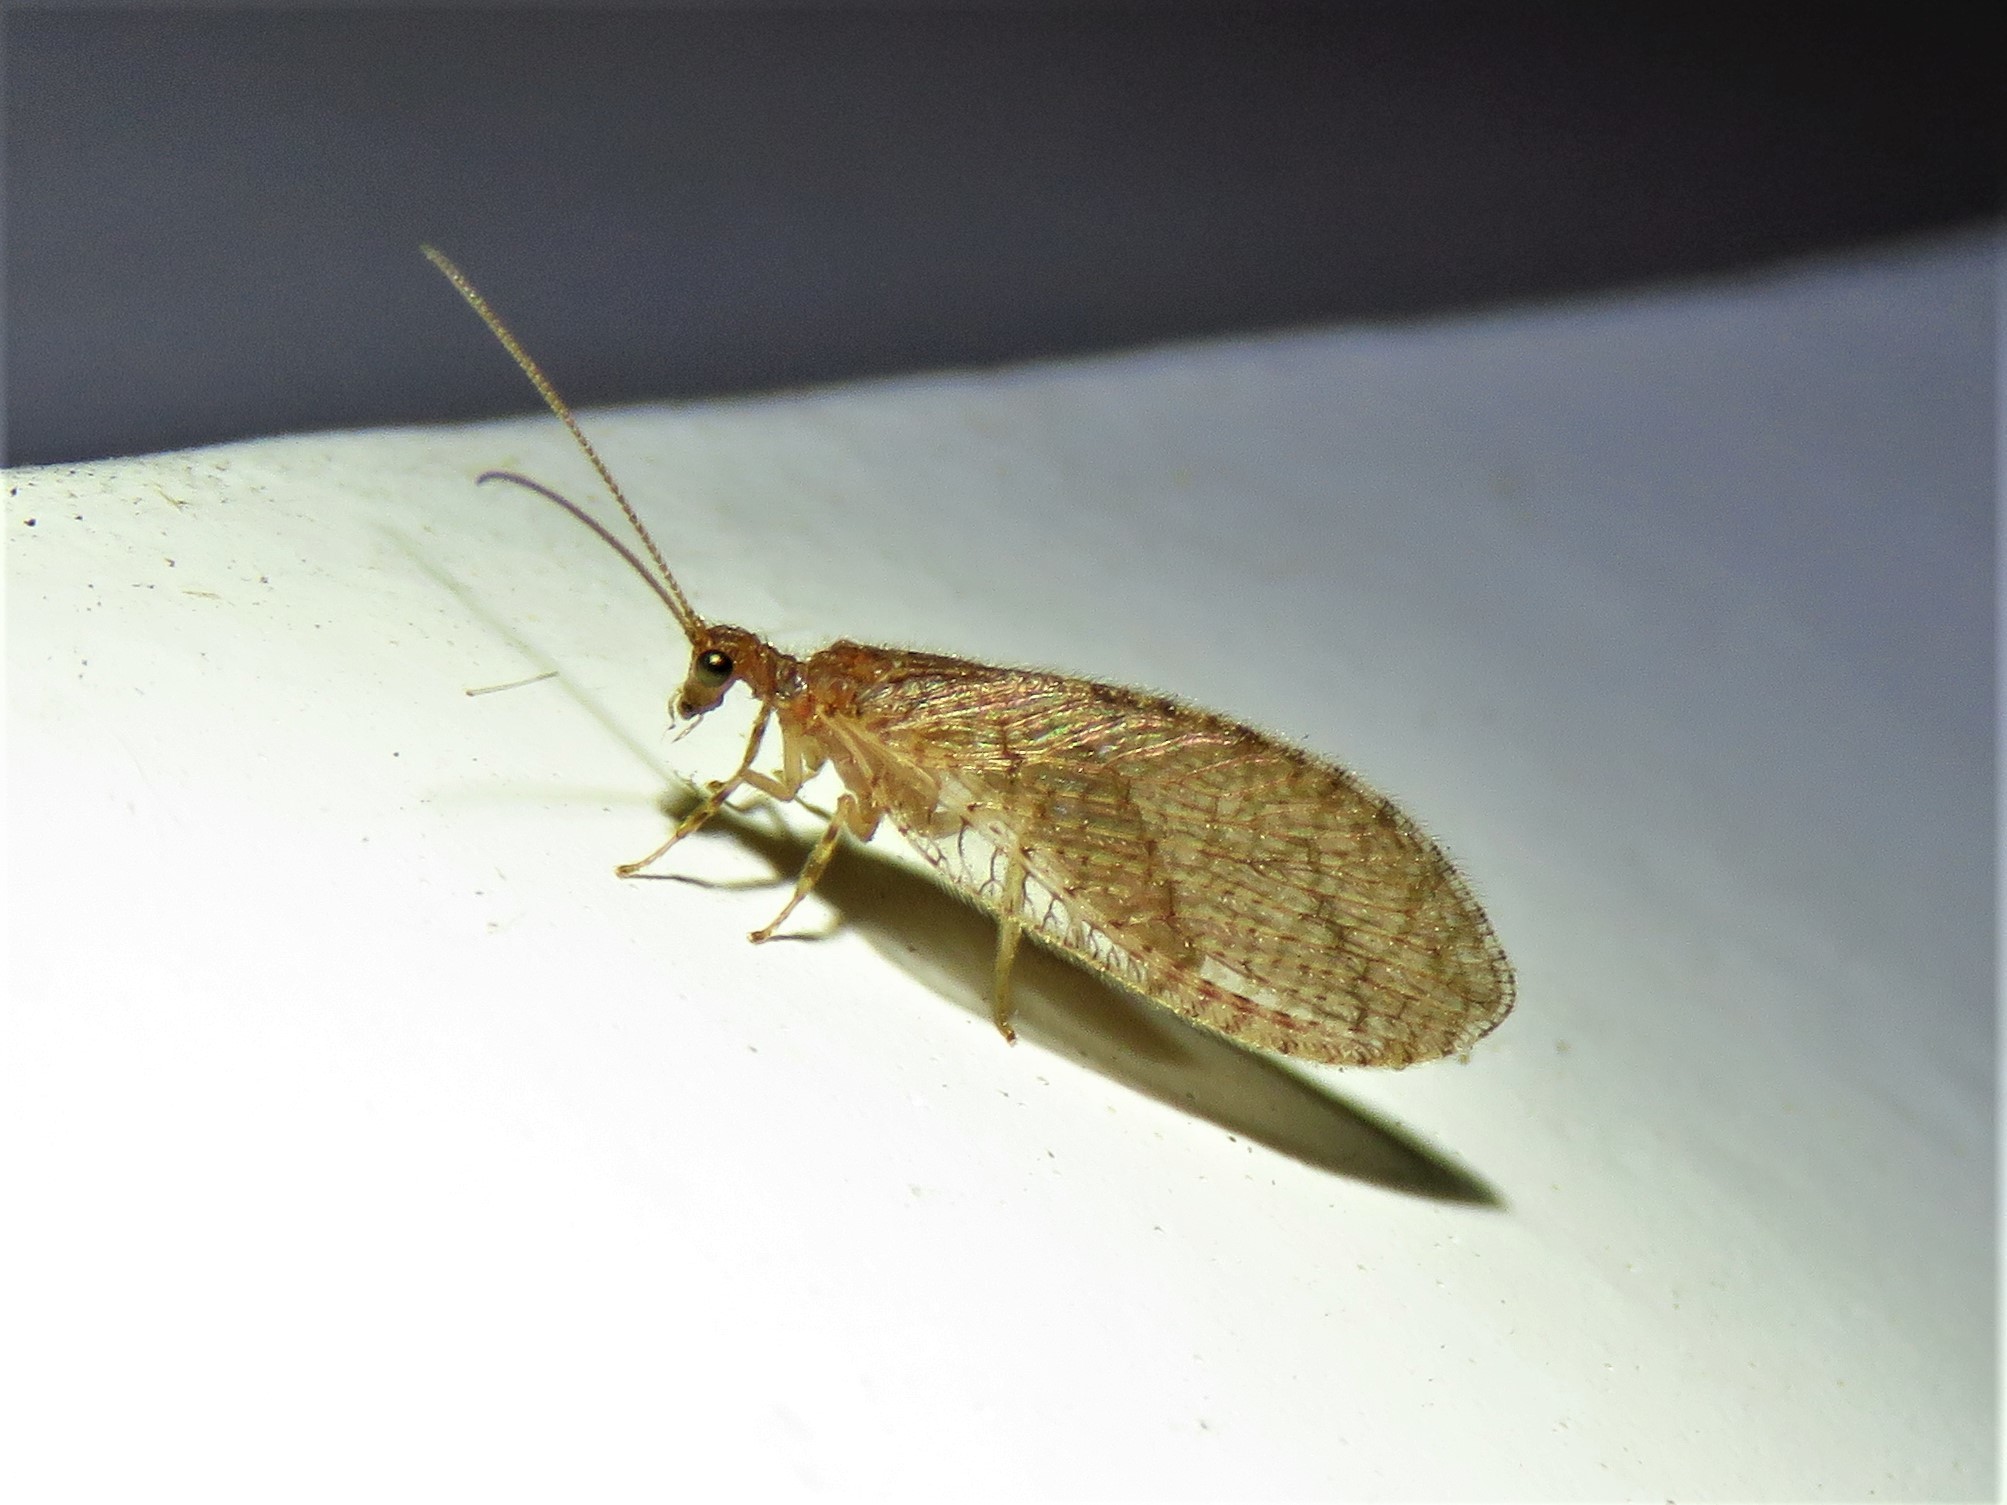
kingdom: Animalia
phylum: Arthropoda
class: Insecta
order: Neuroptera
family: Hemerobiidae
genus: Micromus
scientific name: Micromus posticus
